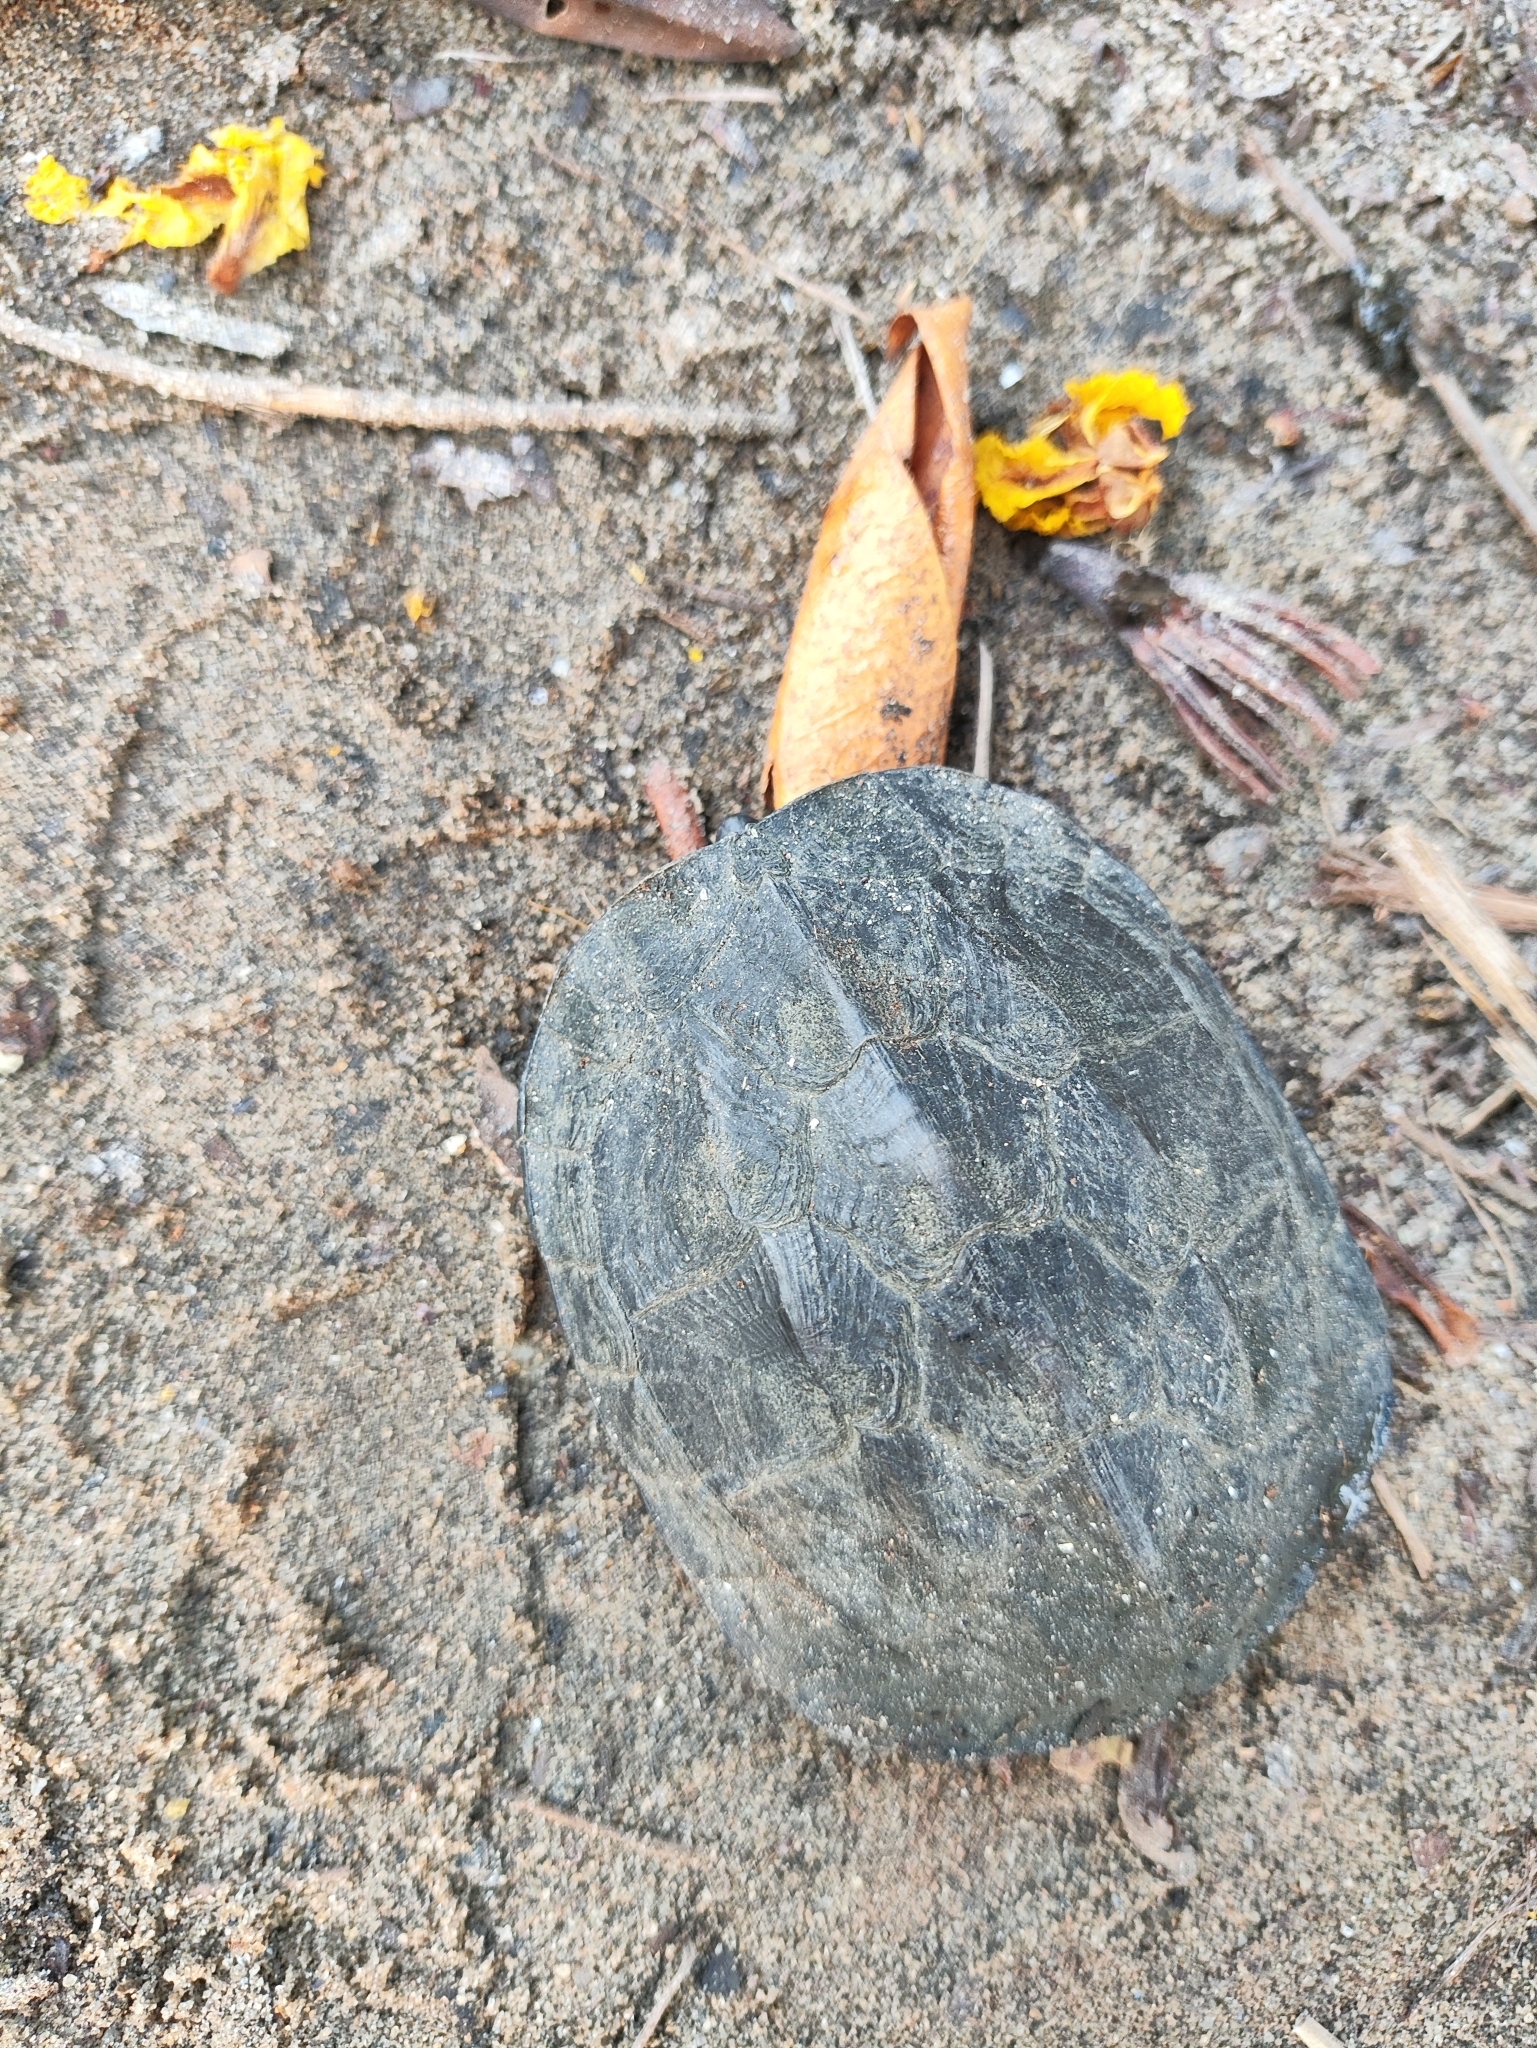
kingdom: Animalia
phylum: Chordata
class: Testudines
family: Geoemydidae
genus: Melanochelys
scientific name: Melanochelys trijuga
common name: Indian black turtle
